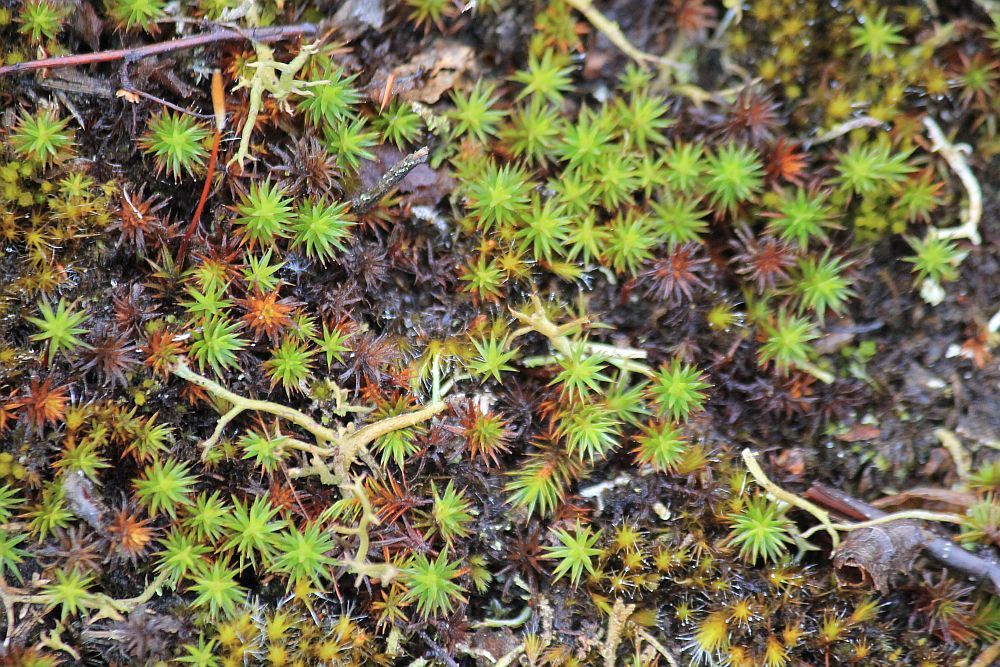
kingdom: Plantae
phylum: Bryophyta
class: Polytrichopsida
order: Polytrichales
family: Polytrichaceae
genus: Polytrichum
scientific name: Polytrichum juniperinum
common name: Juniper haircap moss
